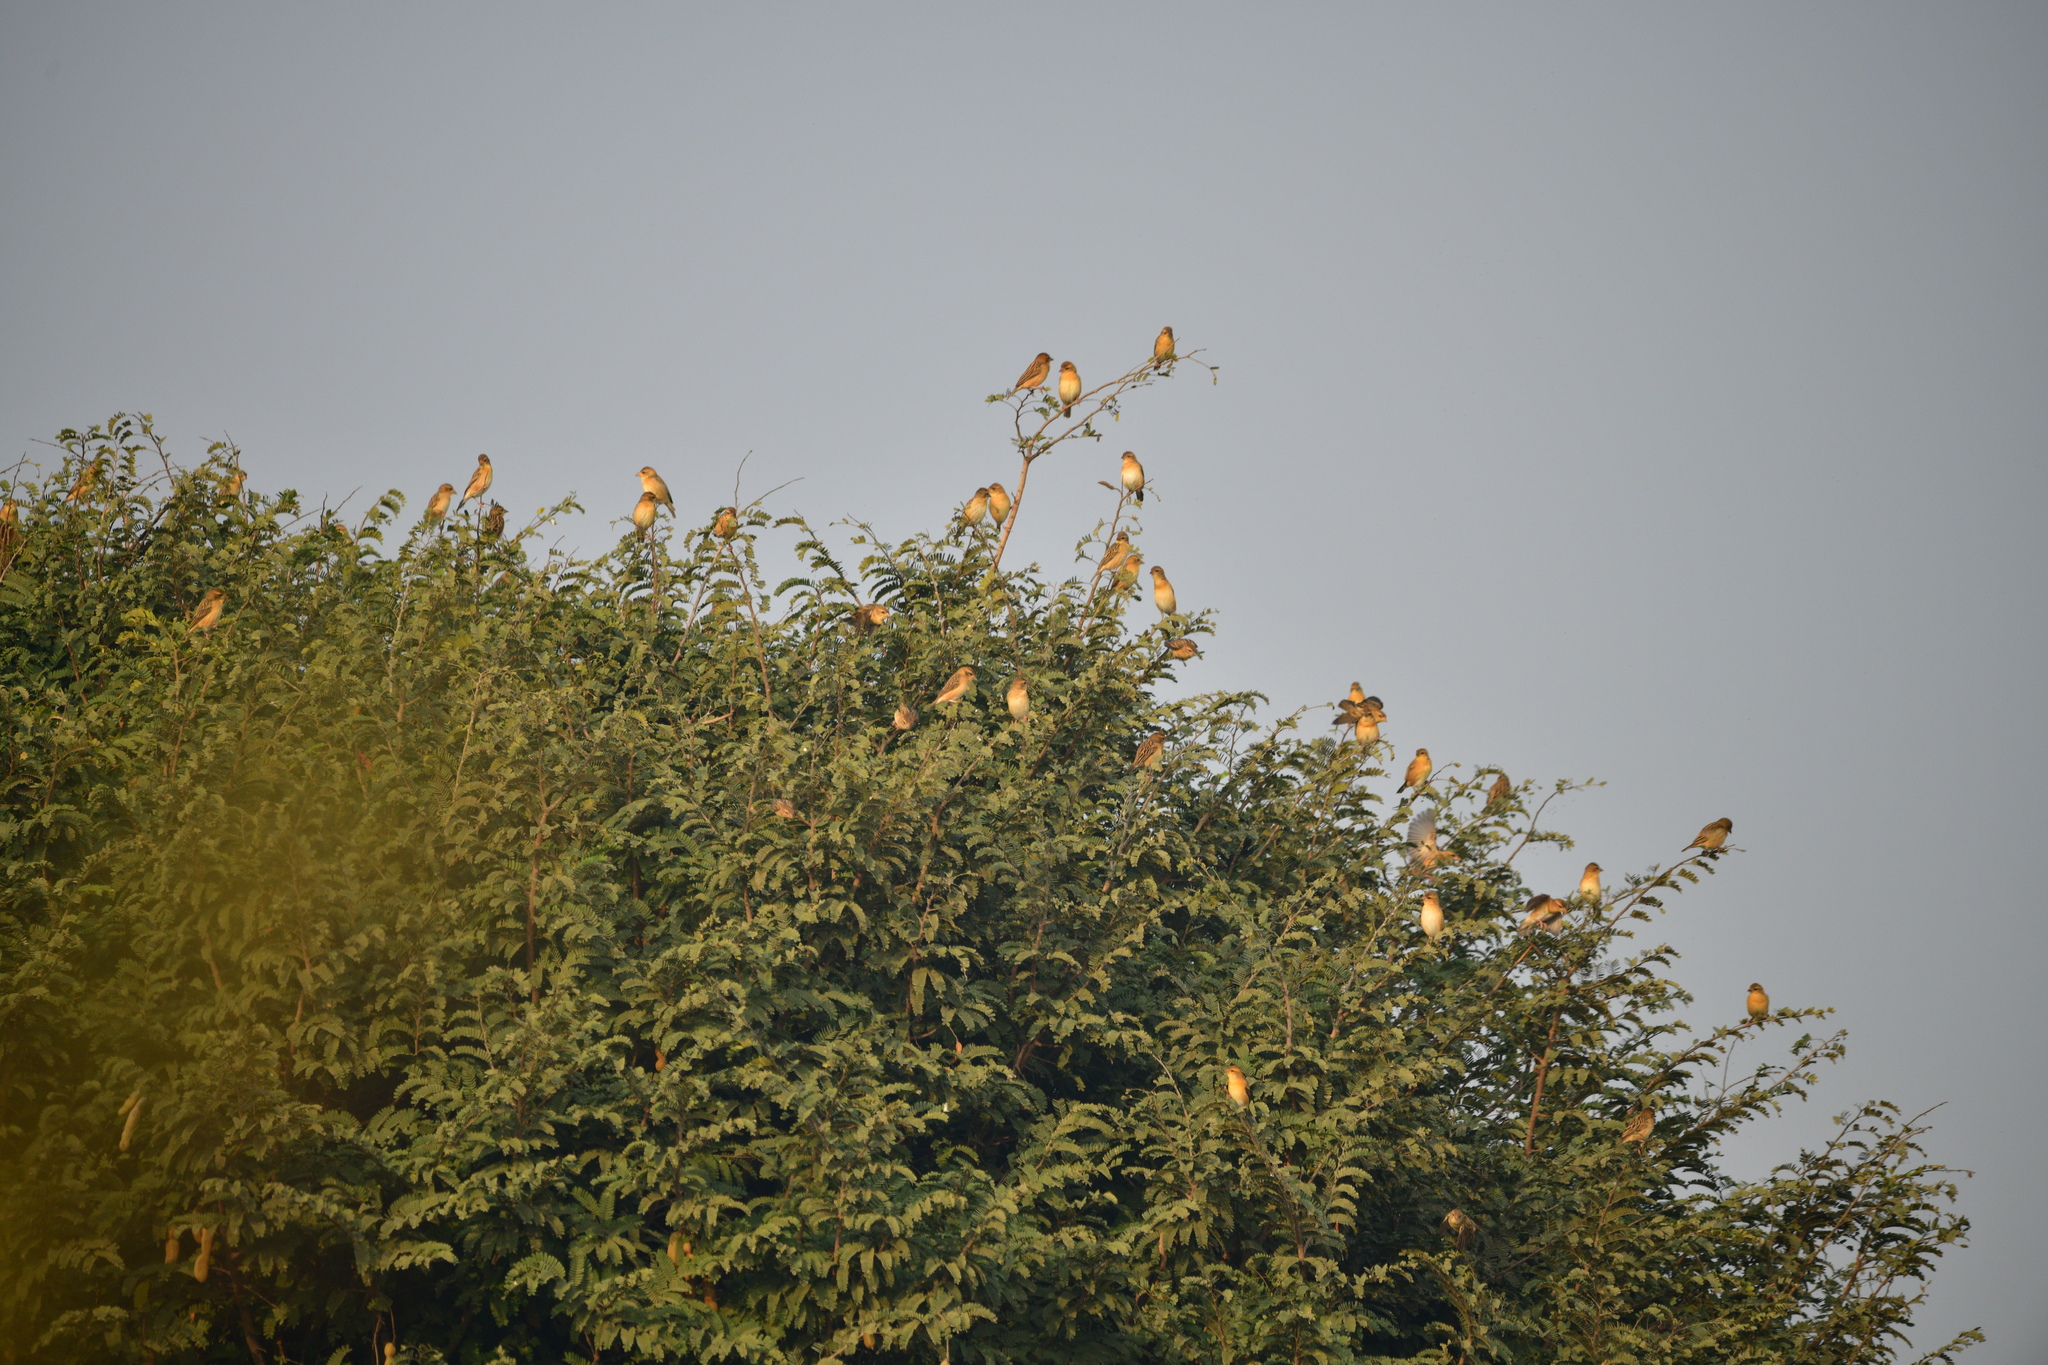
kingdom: Animalia
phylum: Chordata
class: Aves
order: Passeriformes
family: Ploceidae
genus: Ploceus
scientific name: Ploceus philippinus
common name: Baya weaver
